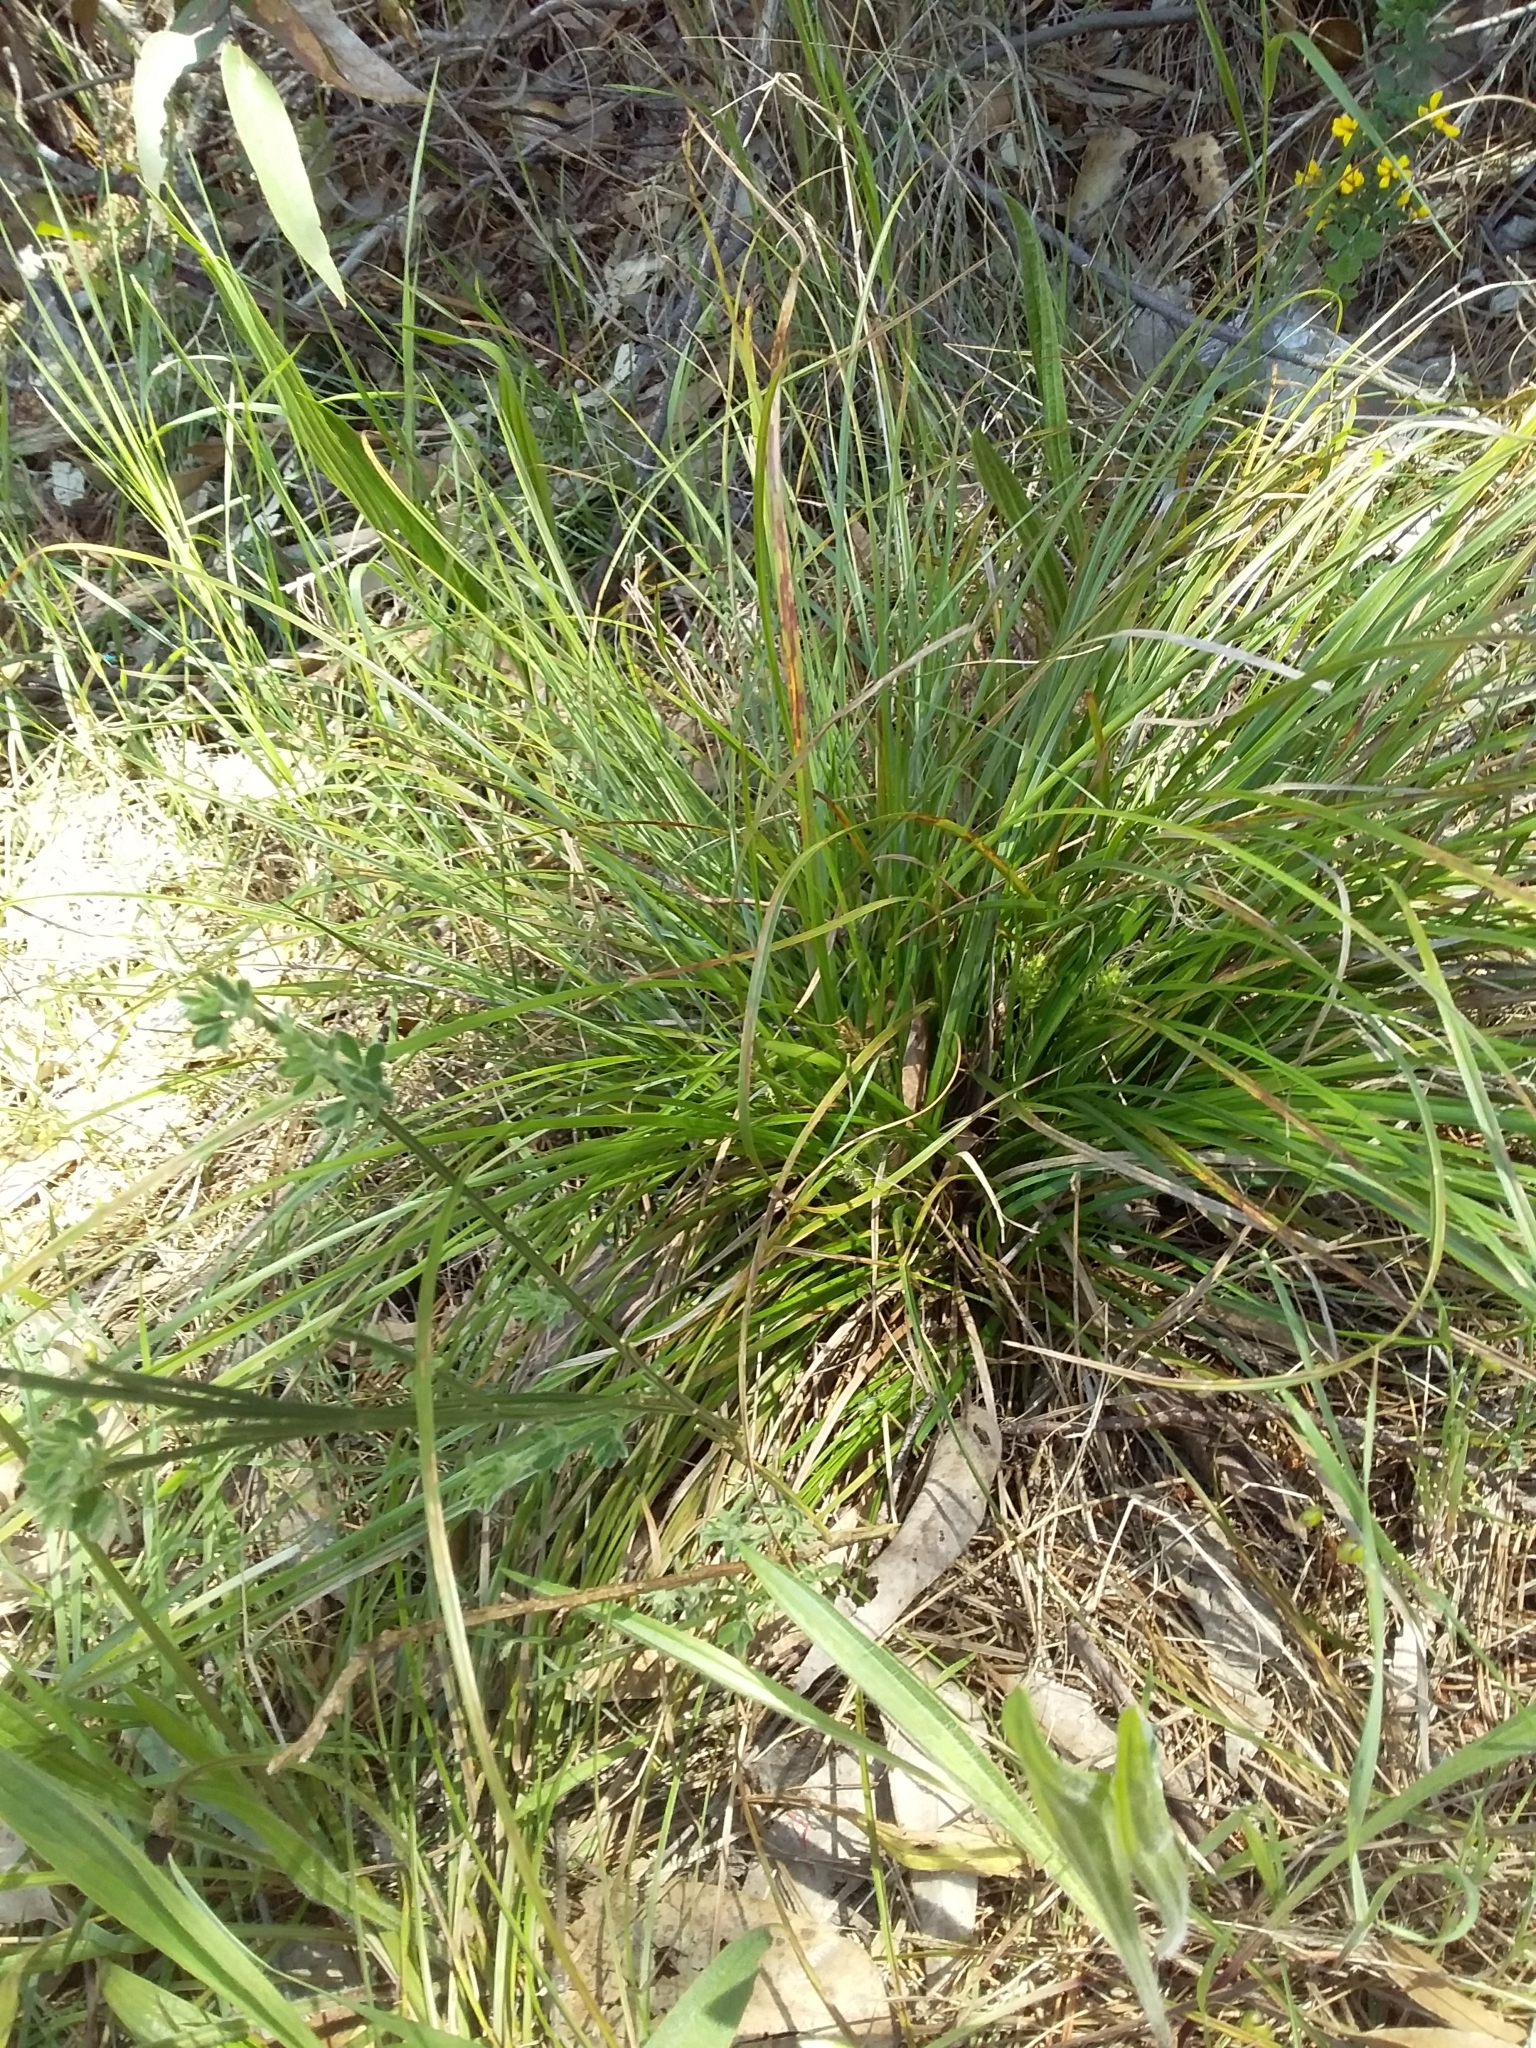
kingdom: Plantae
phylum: Tracheophyta
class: Liliopsida
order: Poales
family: Cyperaceae
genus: Carex
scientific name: Carex breviculmis
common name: Asian shortstem sedge
